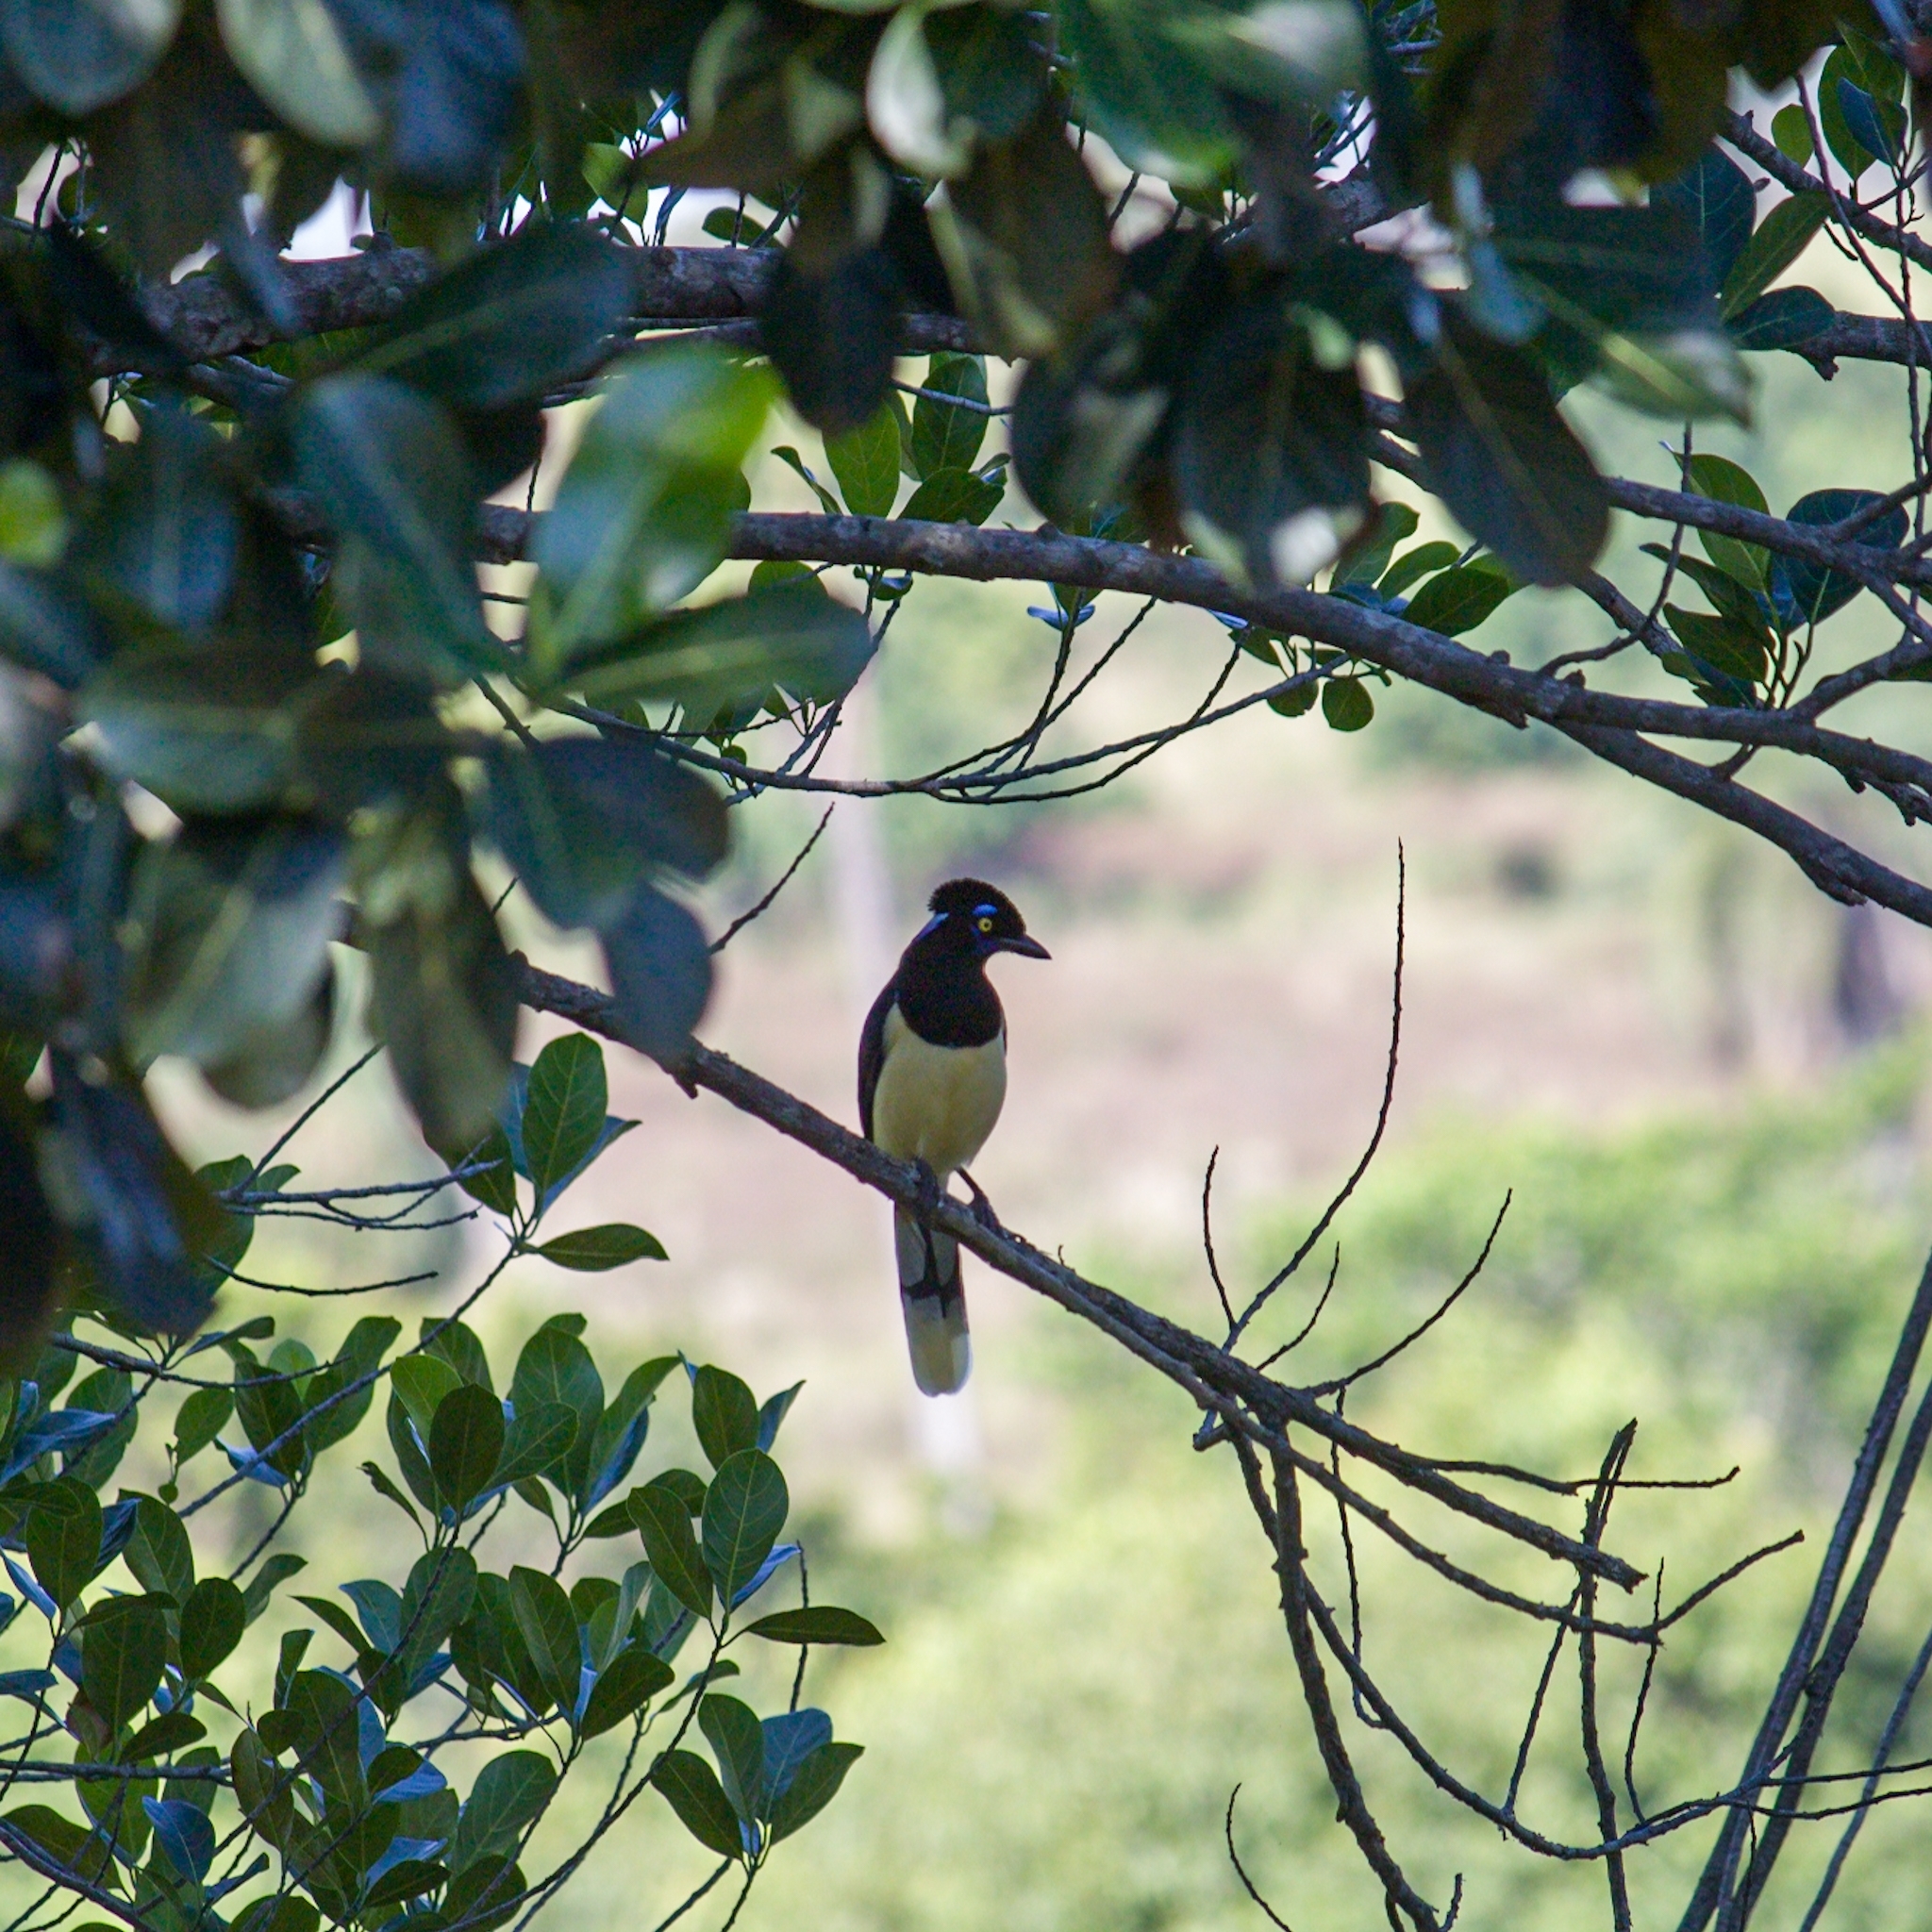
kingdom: Animalia
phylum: Chordata
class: Aves
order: Passeriformes
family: Corvidae
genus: Cyanocorax
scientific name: Cyanocorax chrysops
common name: Plush-crested jay
